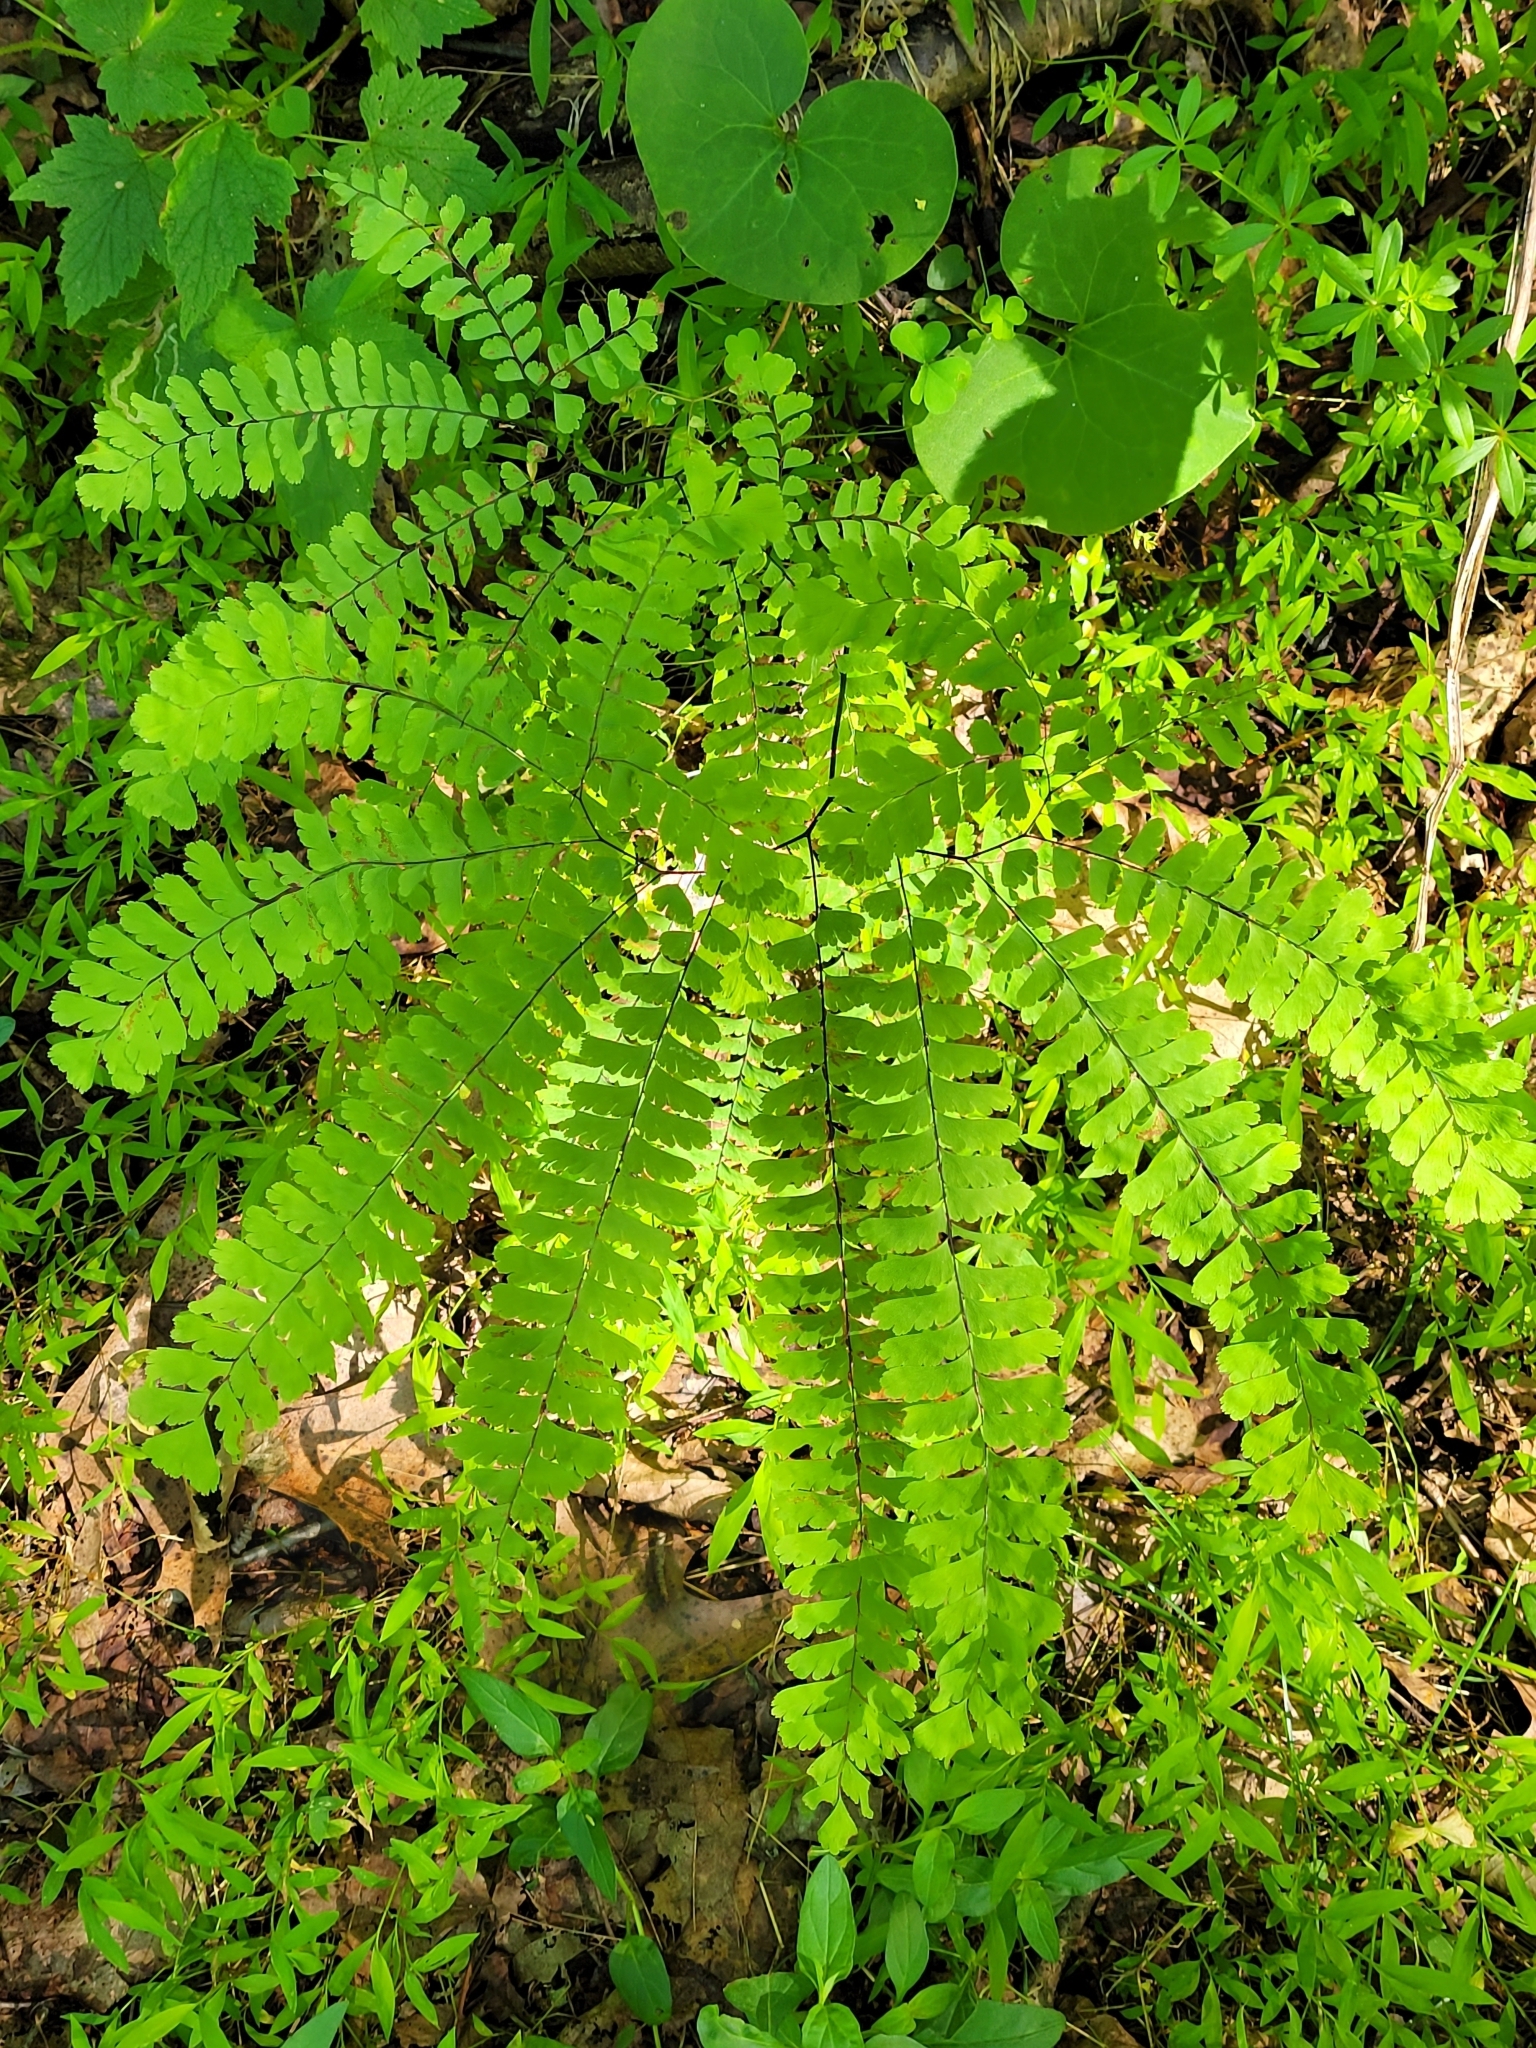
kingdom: Plantae
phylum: Tracheophyta
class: Polypodiopsida
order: Polypodiales
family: Pteridaceae
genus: Adiantum
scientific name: Adiantum pedatum
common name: Five-finger fern
